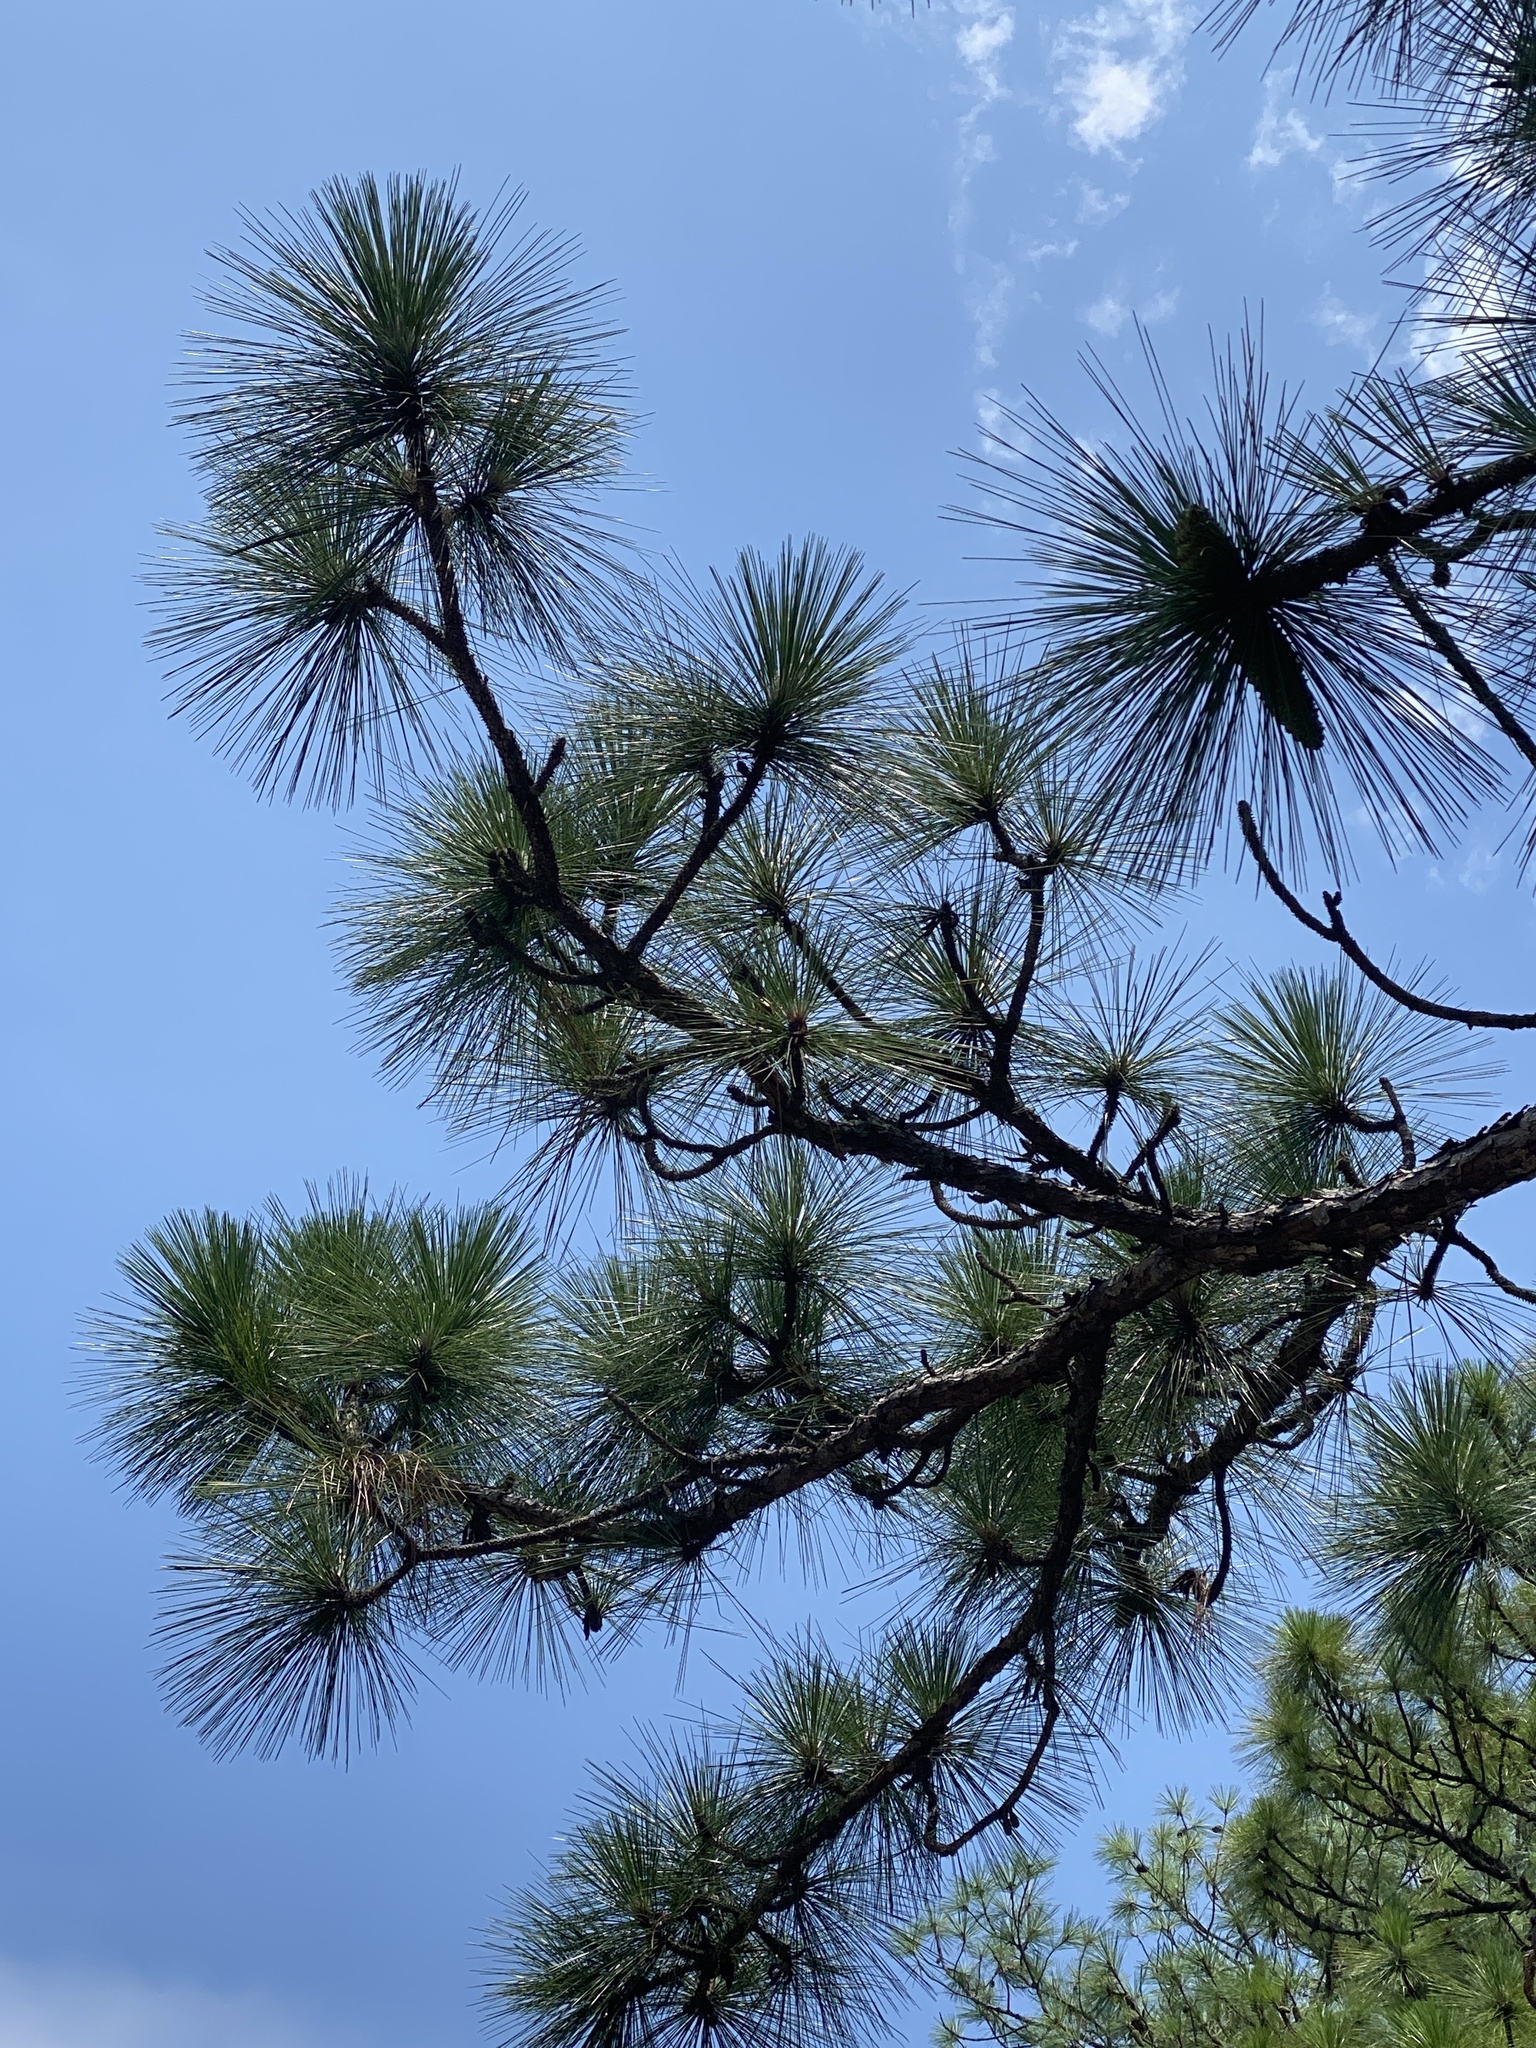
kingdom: Plantae
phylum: Tracheophyta
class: Pinopsida
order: Pinales
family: Pinaceae
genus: Pinus
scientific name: Pinus palustris
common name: Longleaf pine
